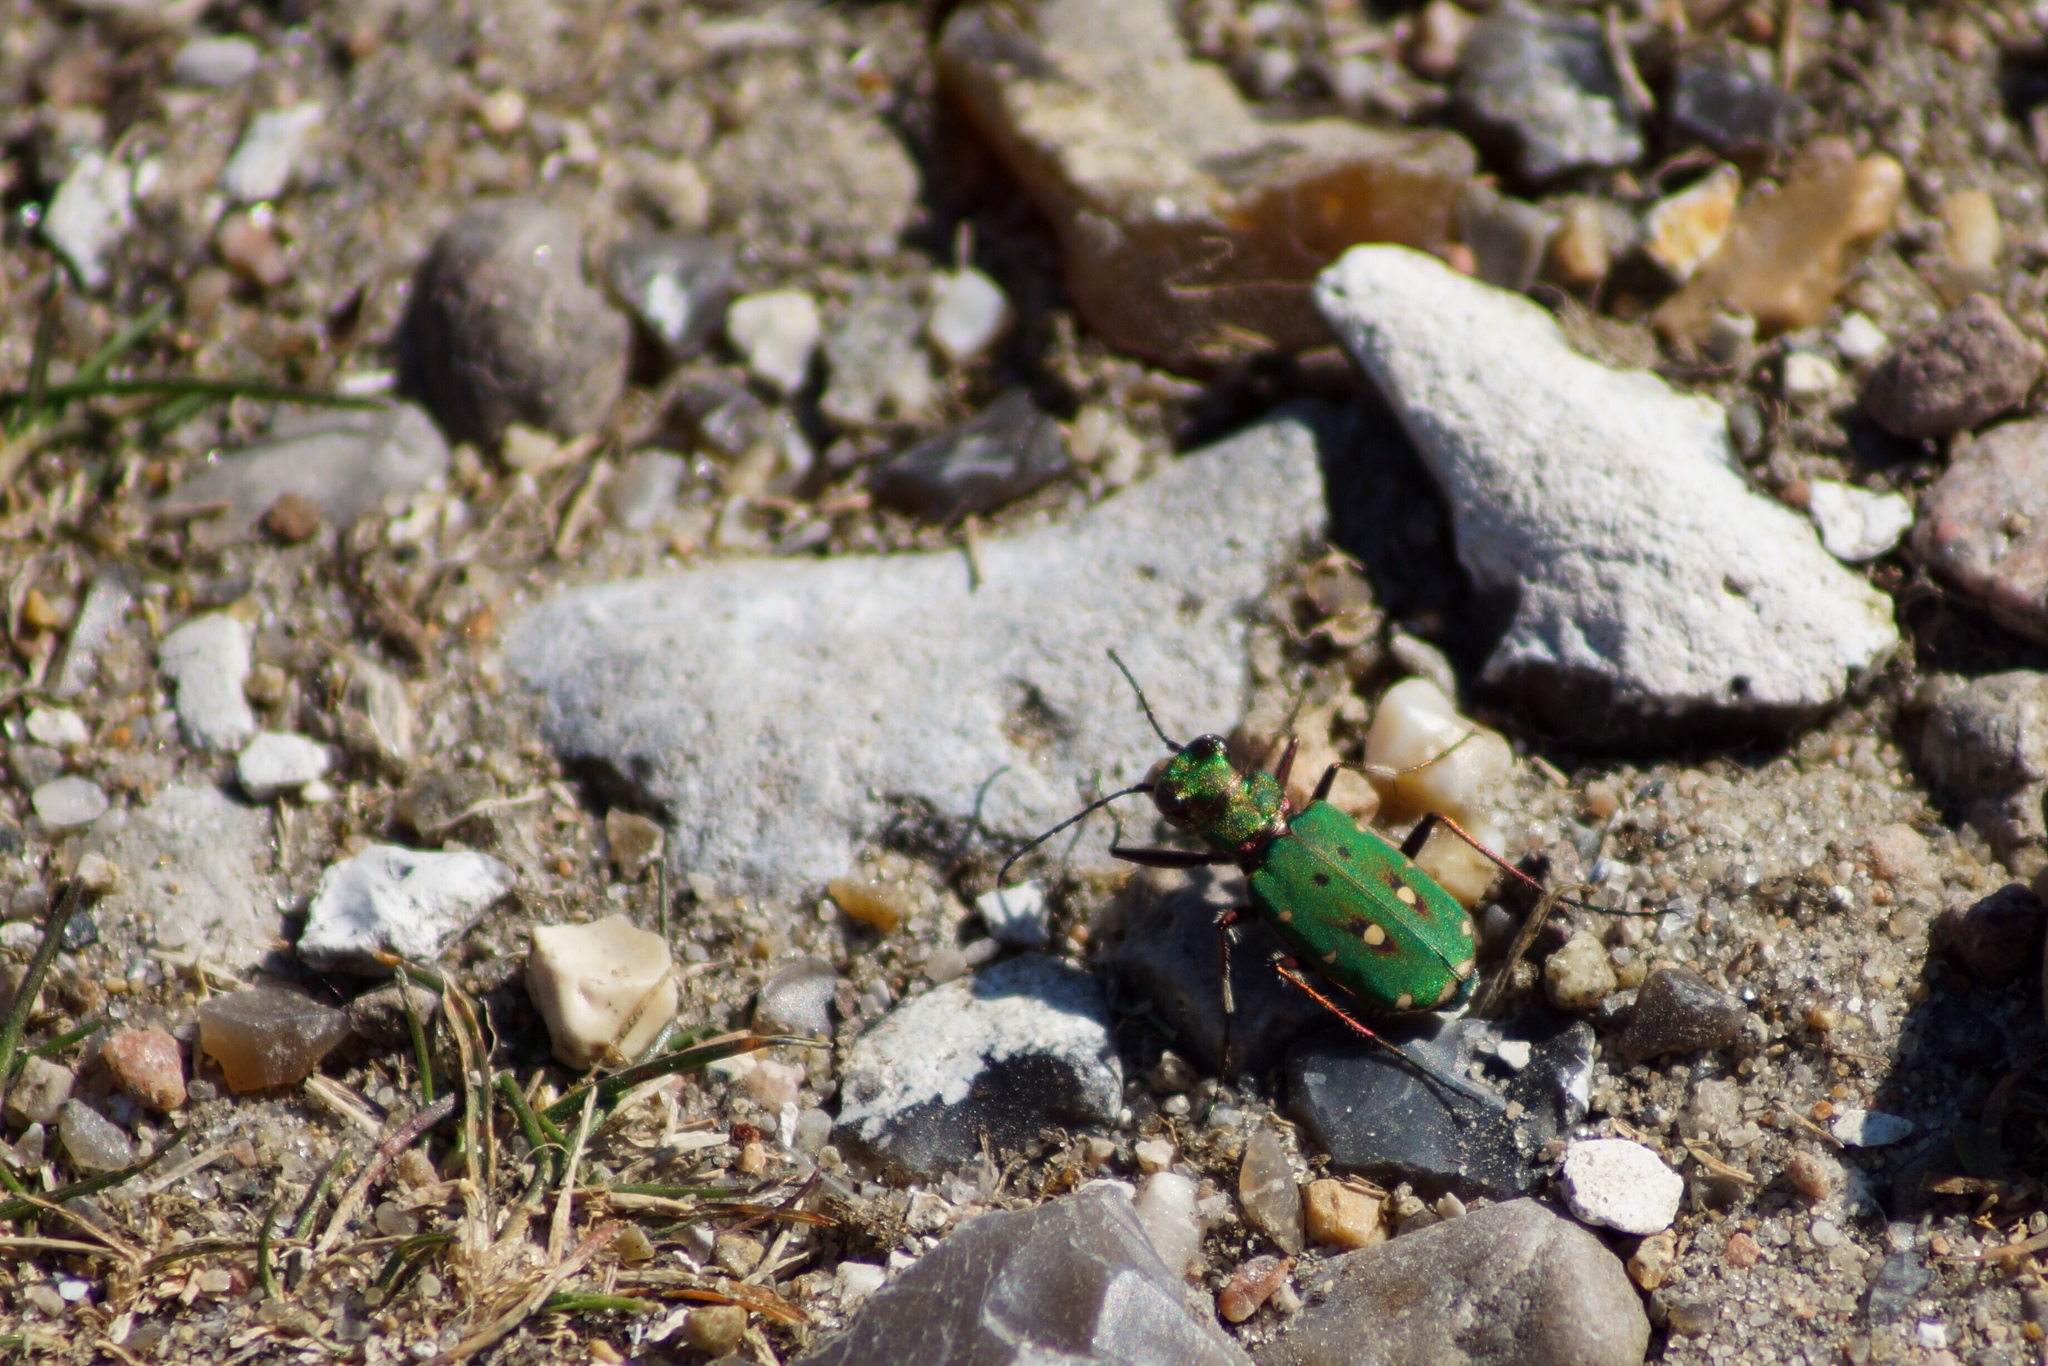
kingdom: Animalia
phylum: Arthropoda
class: Insecta
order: Coleoptera
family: Carabidae
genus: Cicindela
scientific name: Cicindela campestris
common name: Common tiger beetle
